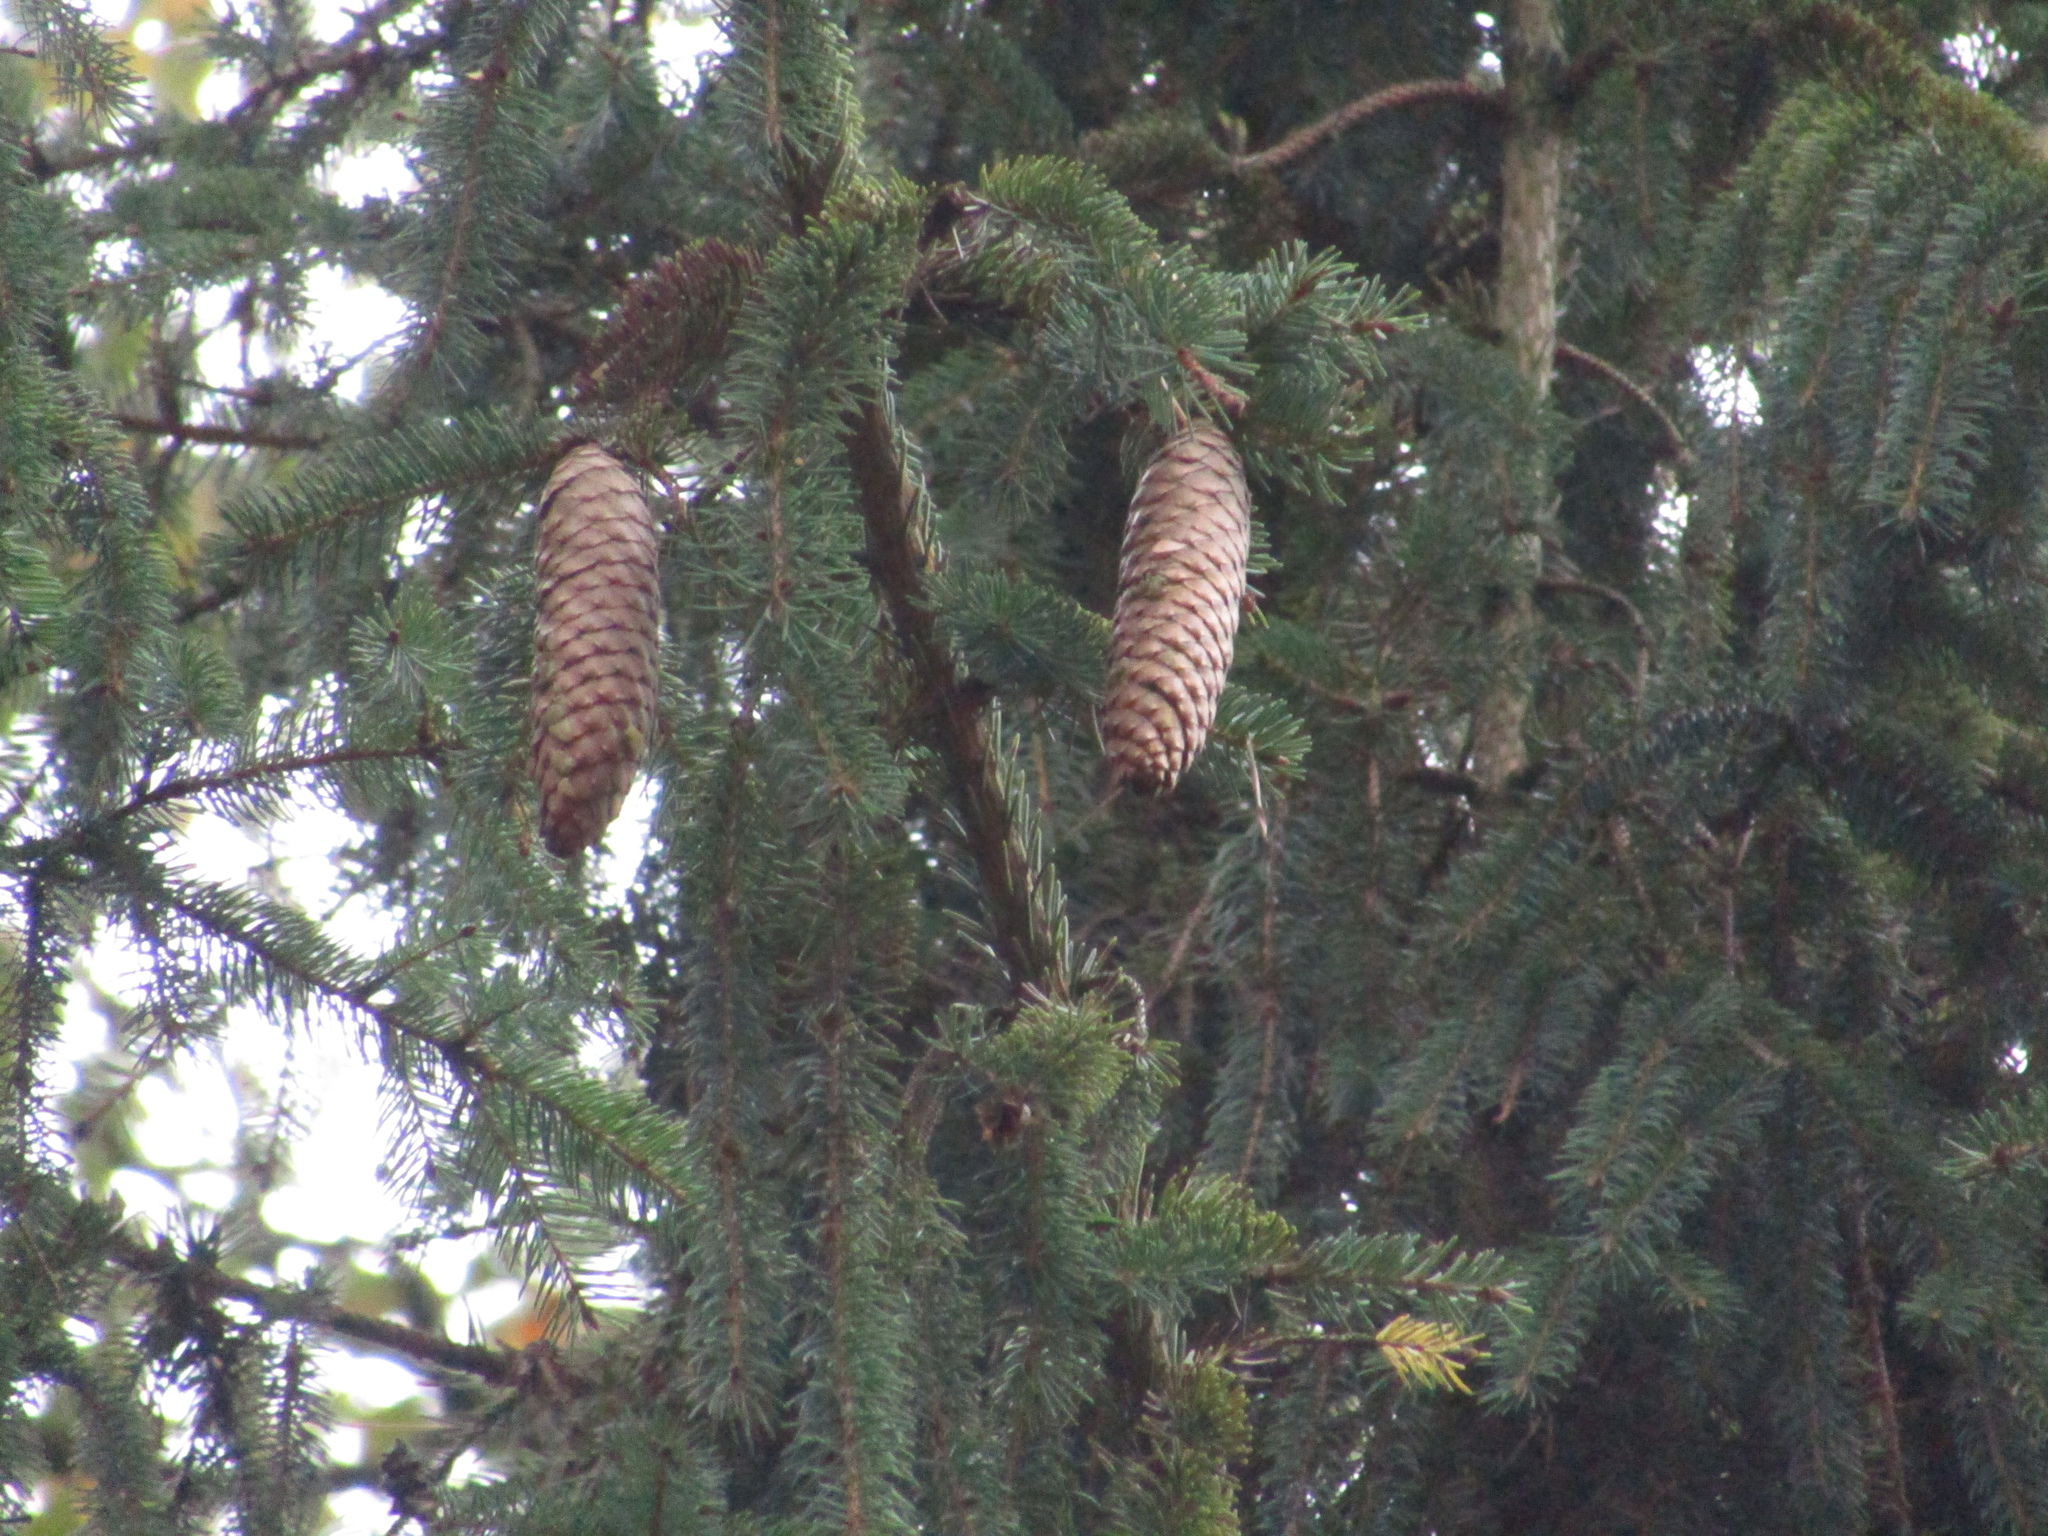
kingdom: Plantae
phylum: Tracheophyta
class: Pinopsida
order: Pinales
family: Pinaceae
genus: Picea
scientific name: Picea abies
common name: Norway spruce
